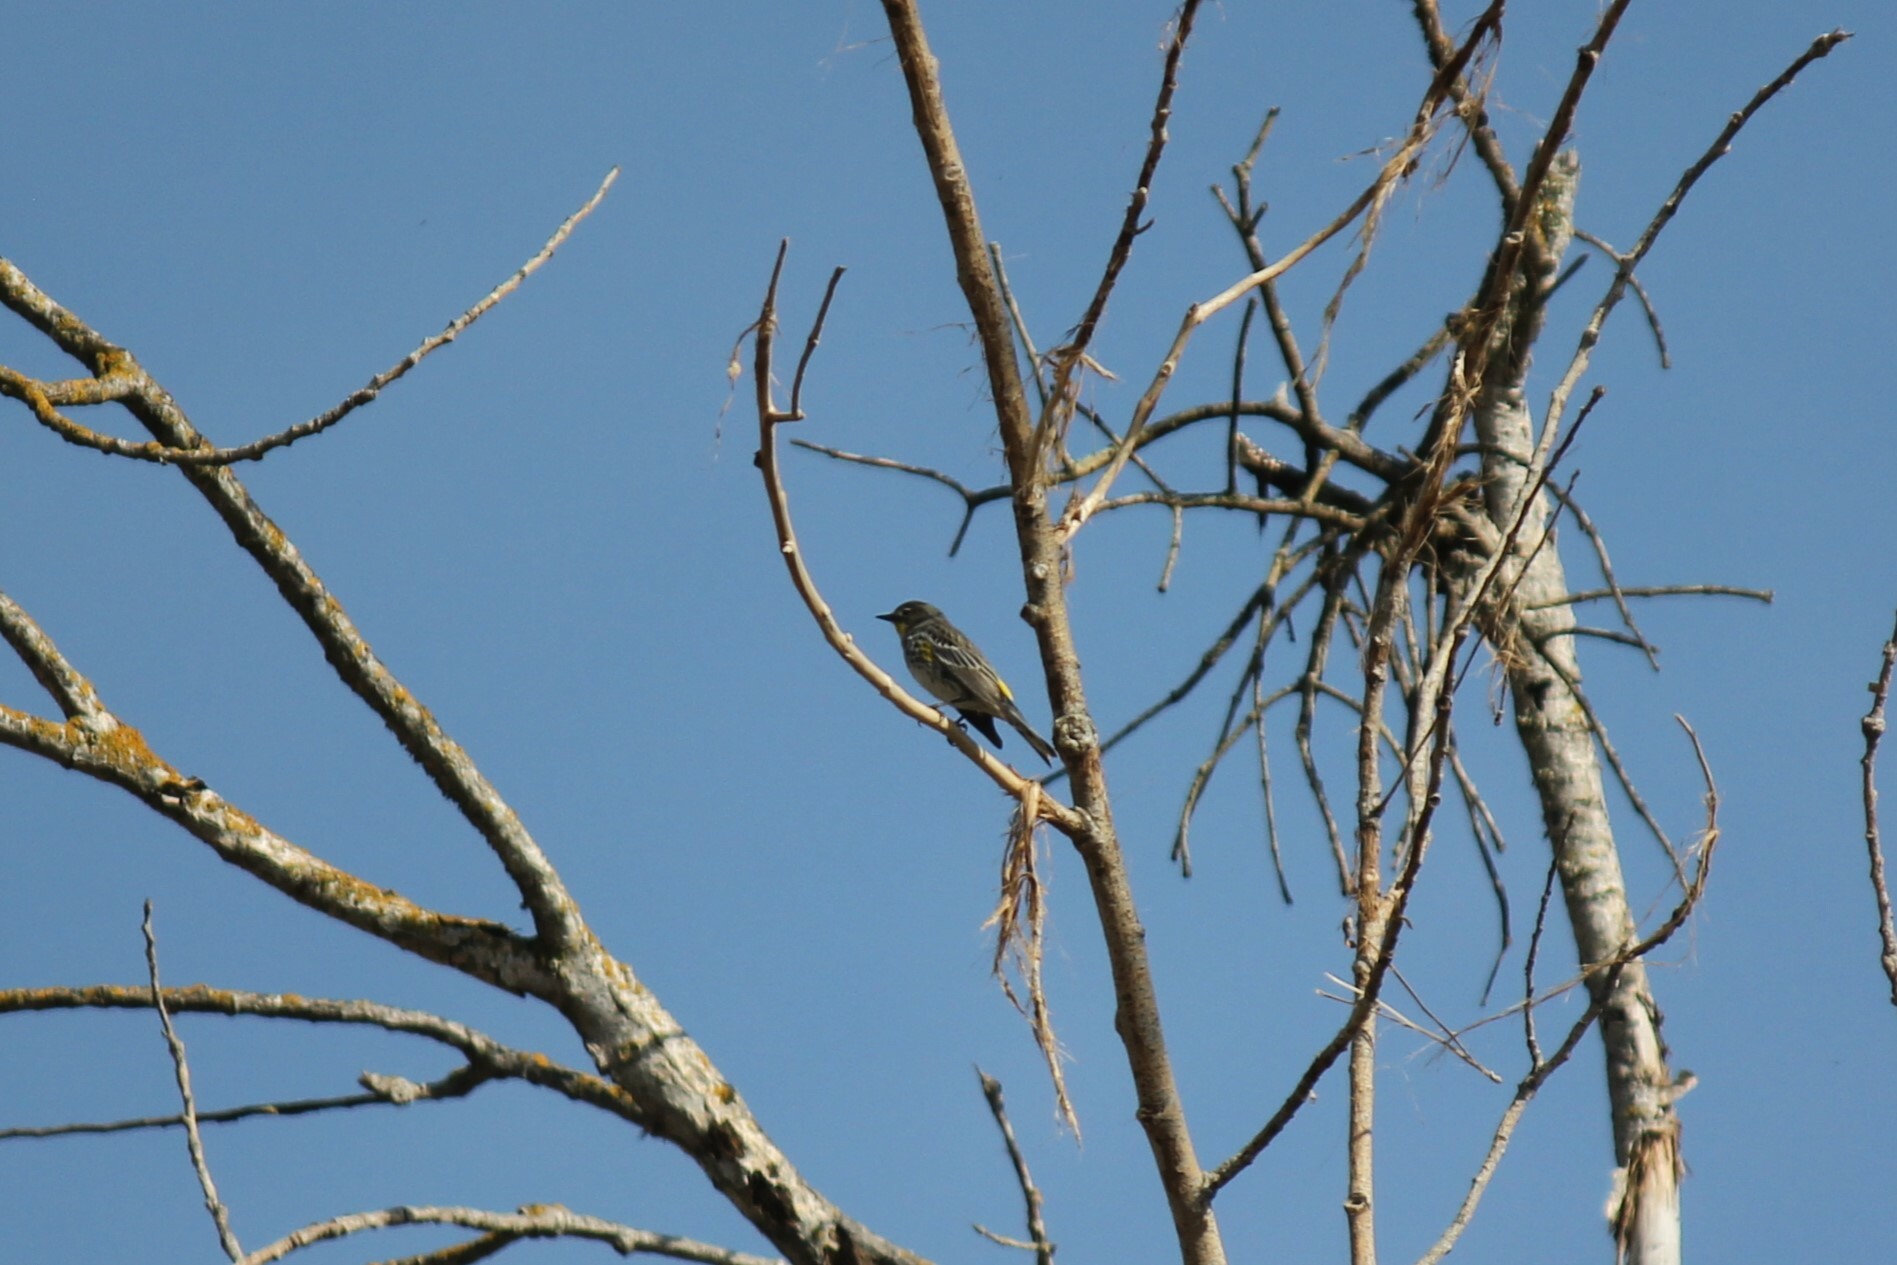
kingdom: Animalia
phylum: Chordata
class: Aves
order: Passeriformes
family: Parulidae
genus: Setophaga
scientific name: Setophaga coronata
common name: Myrtle warbler
